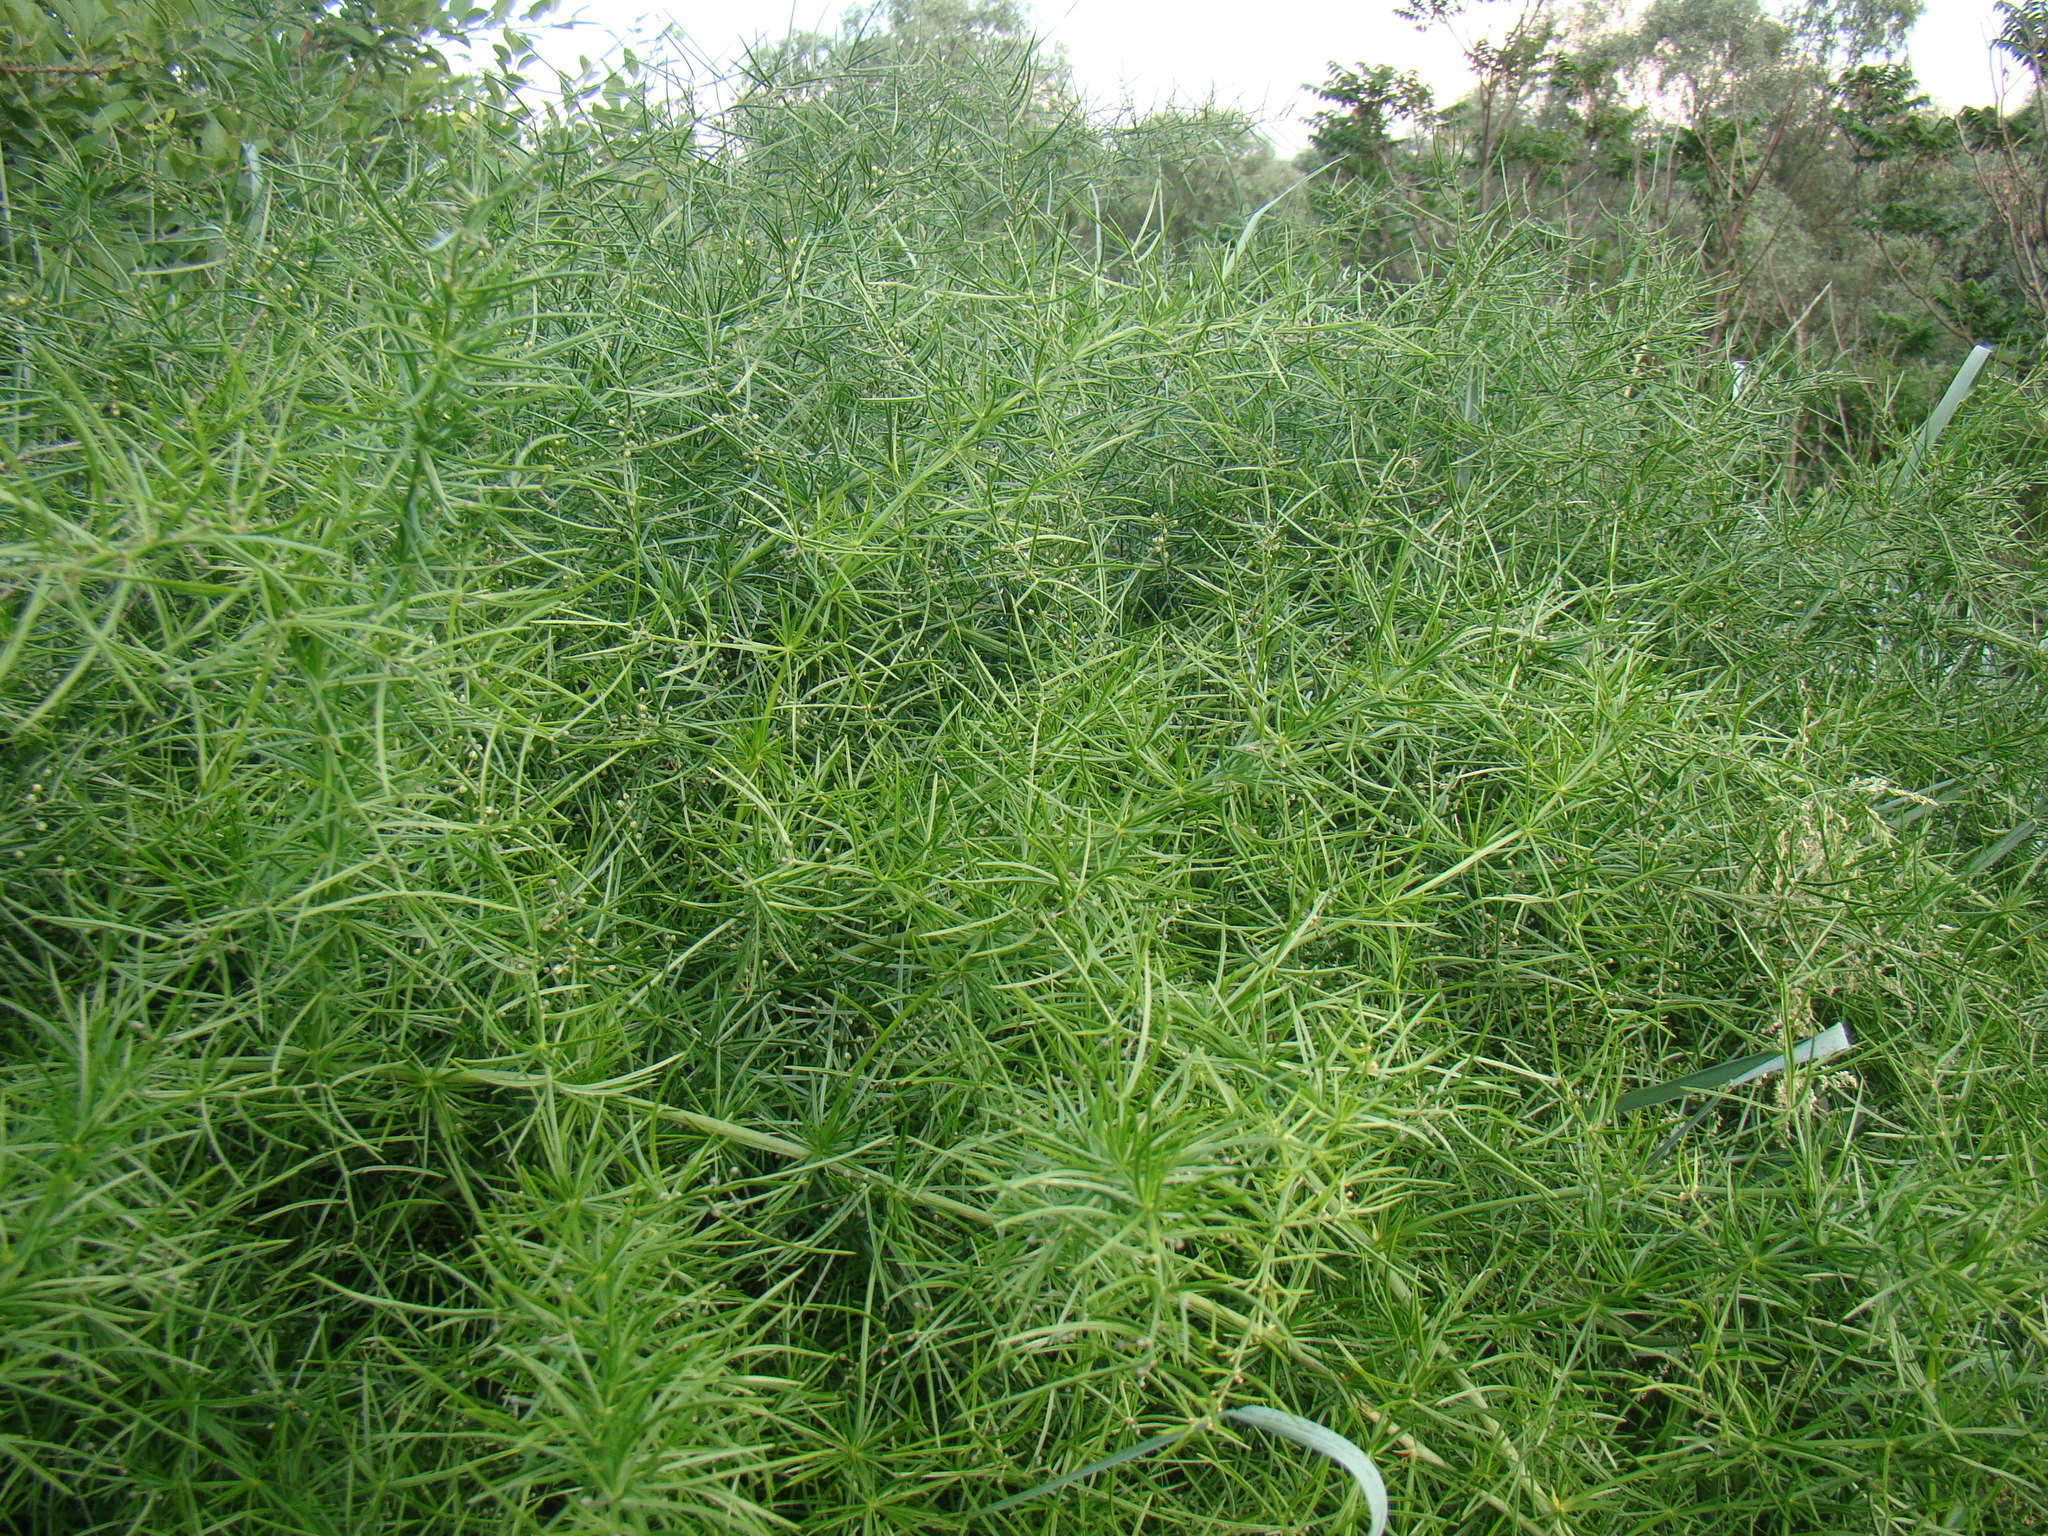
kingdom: Plantae
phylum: Tracheophyta
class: Liliopsida
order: Asparagales
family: Asparagaceae
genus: Asparagus
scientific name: Asparagus verticillatus
